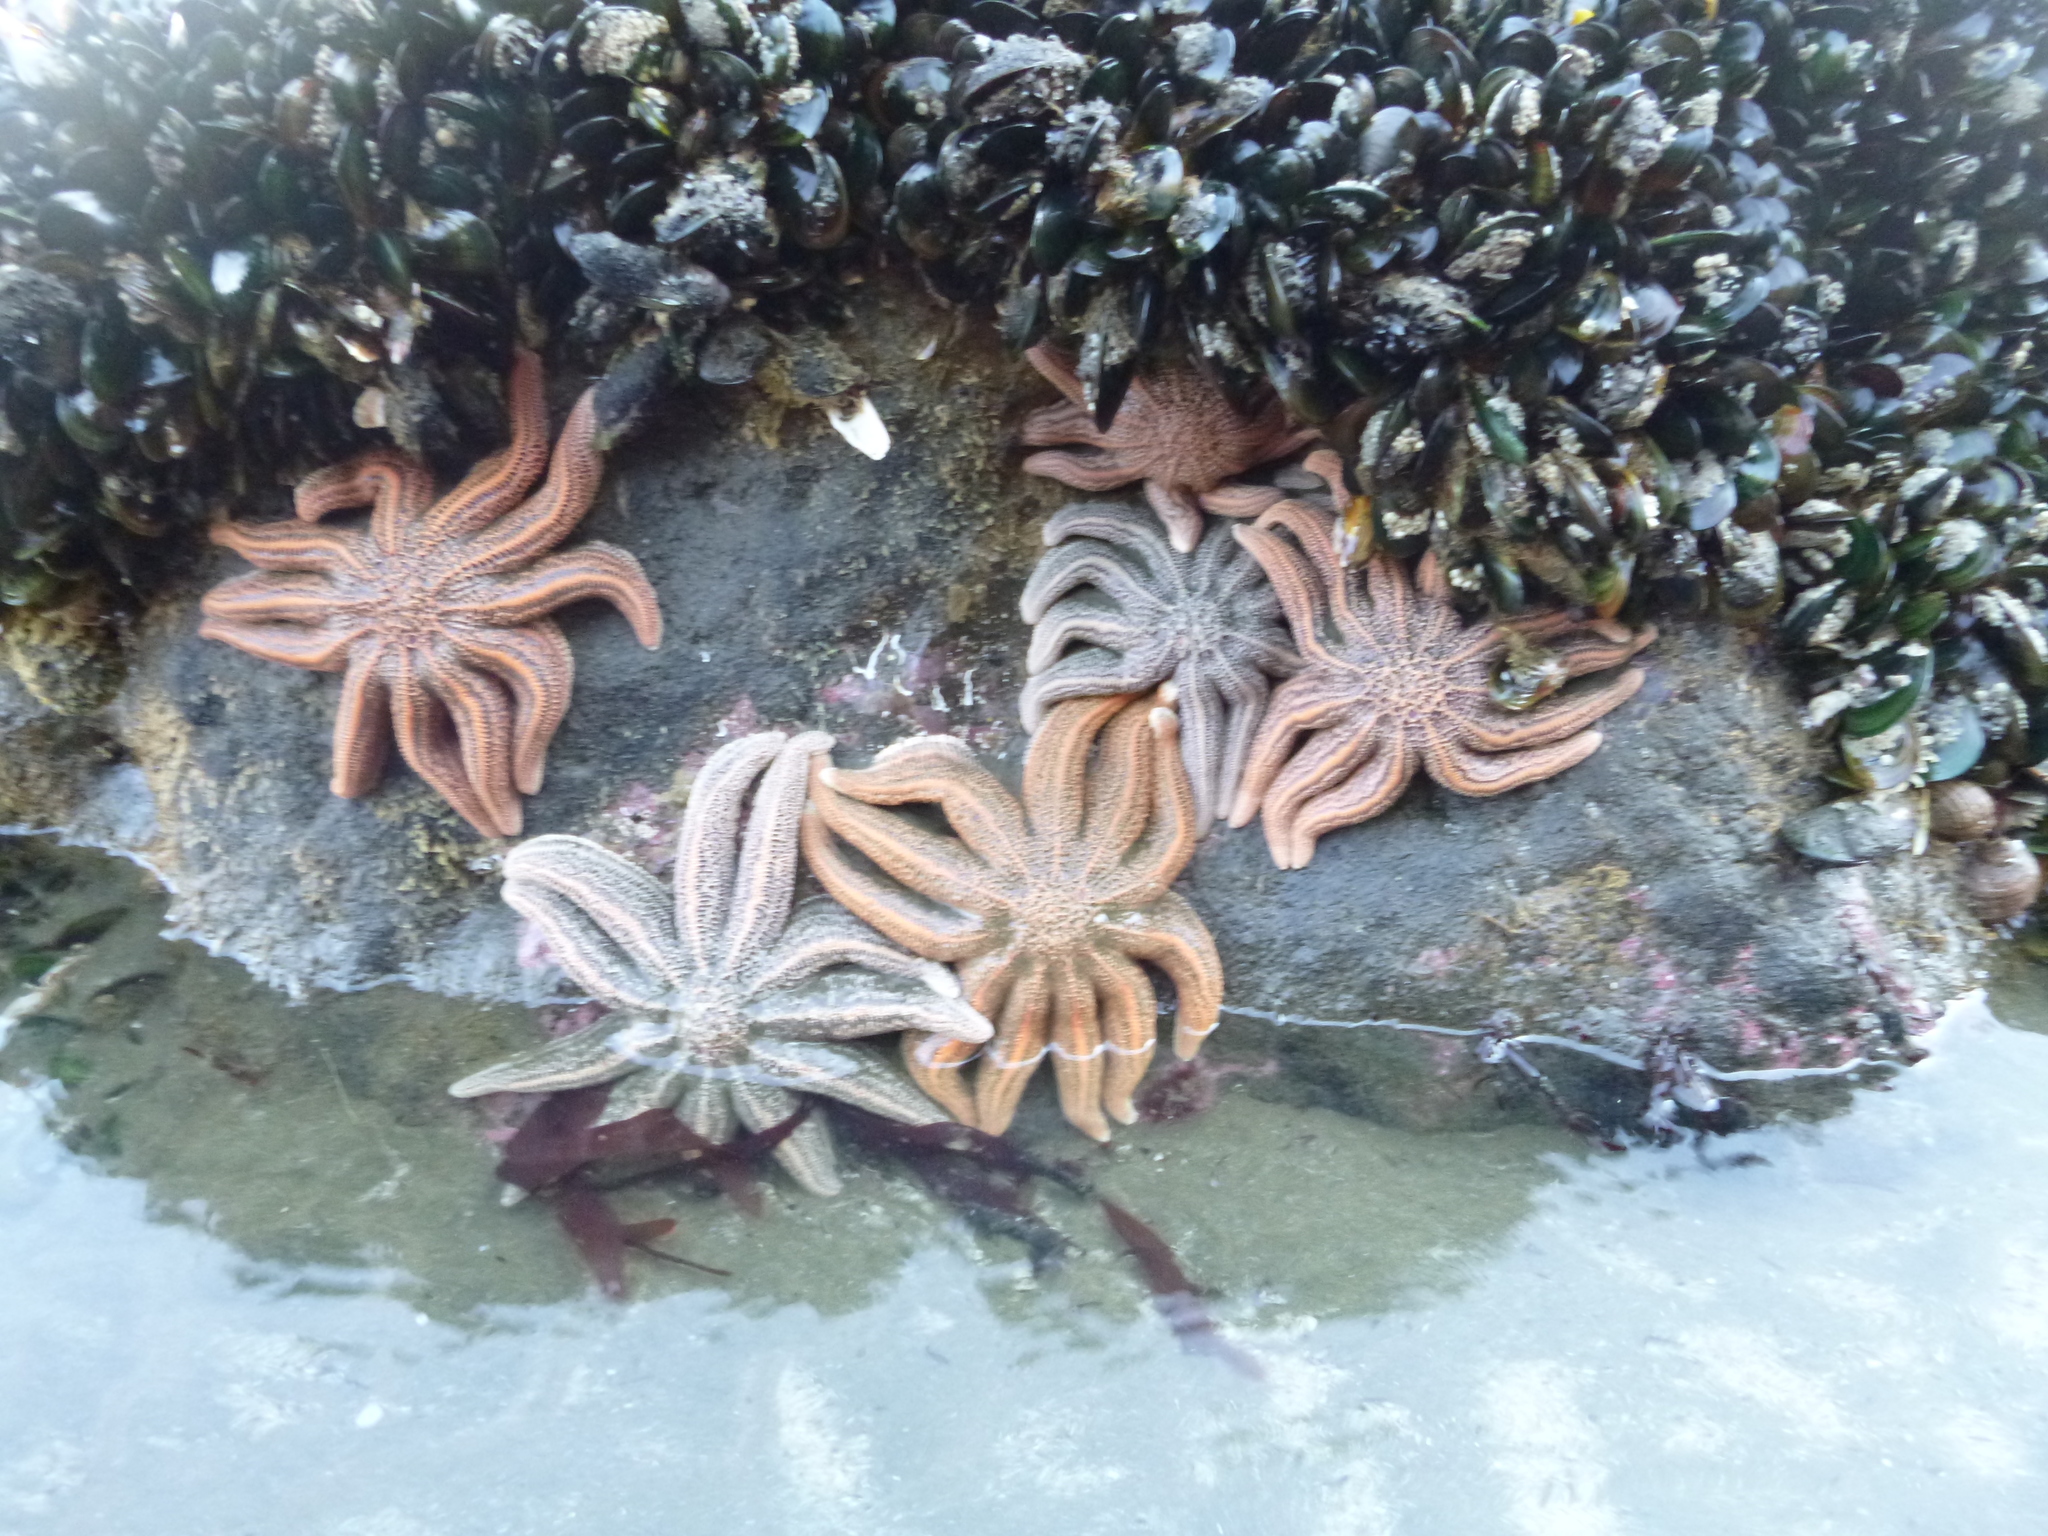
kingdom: Animalia
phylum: Echinodermata
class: Asteroidea
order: Forcipulatida
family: Stichasteridae
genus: Stichaster
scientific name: Stichaster australis
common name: Reef starfish
